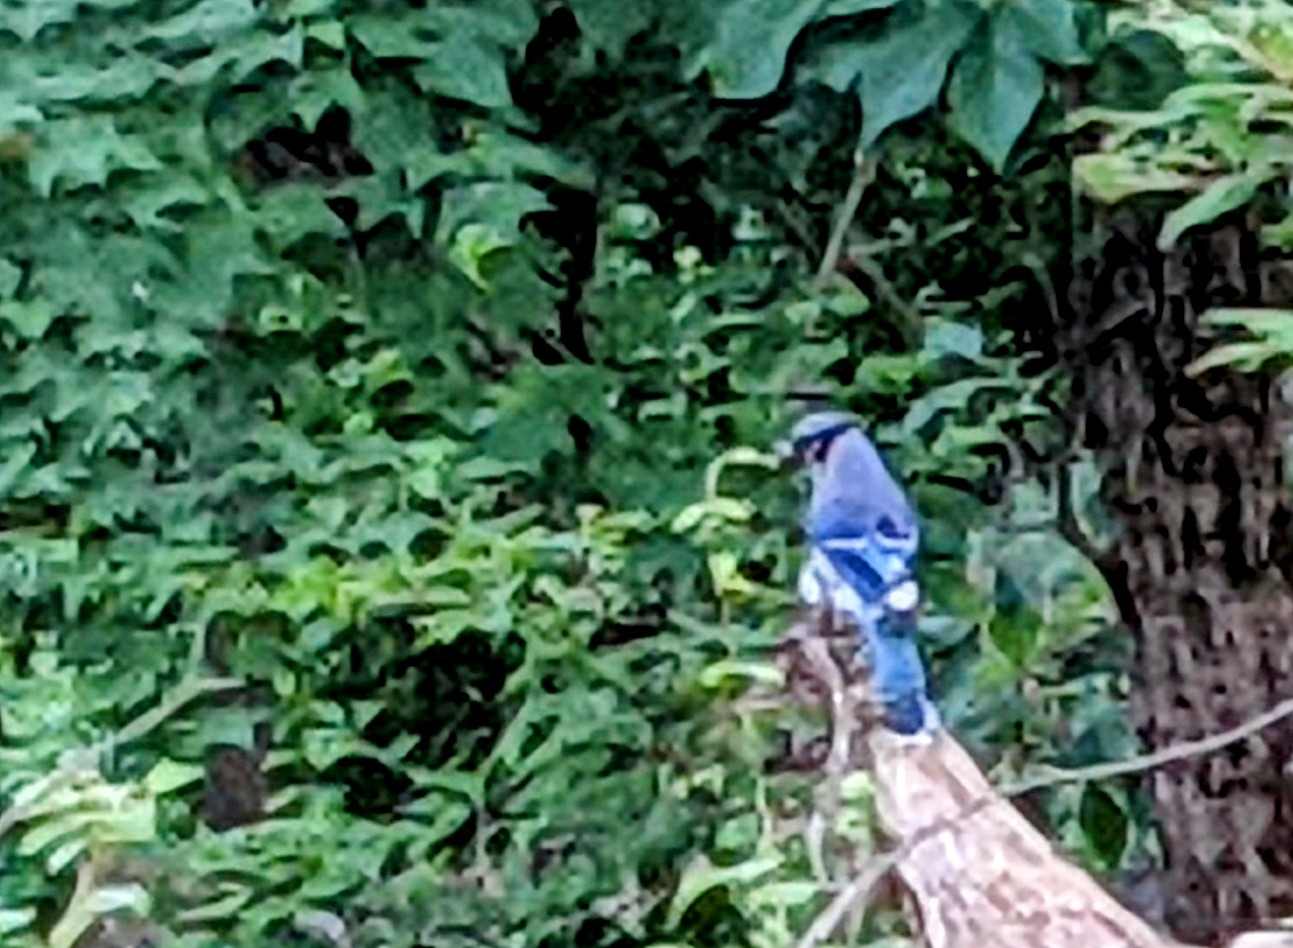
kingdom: Animalia
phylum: Chordata
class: Aves
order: Passeriformes
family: Corvidae
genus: Cyanocitta
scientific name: Cyanocitta cristata
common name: Blue jay
